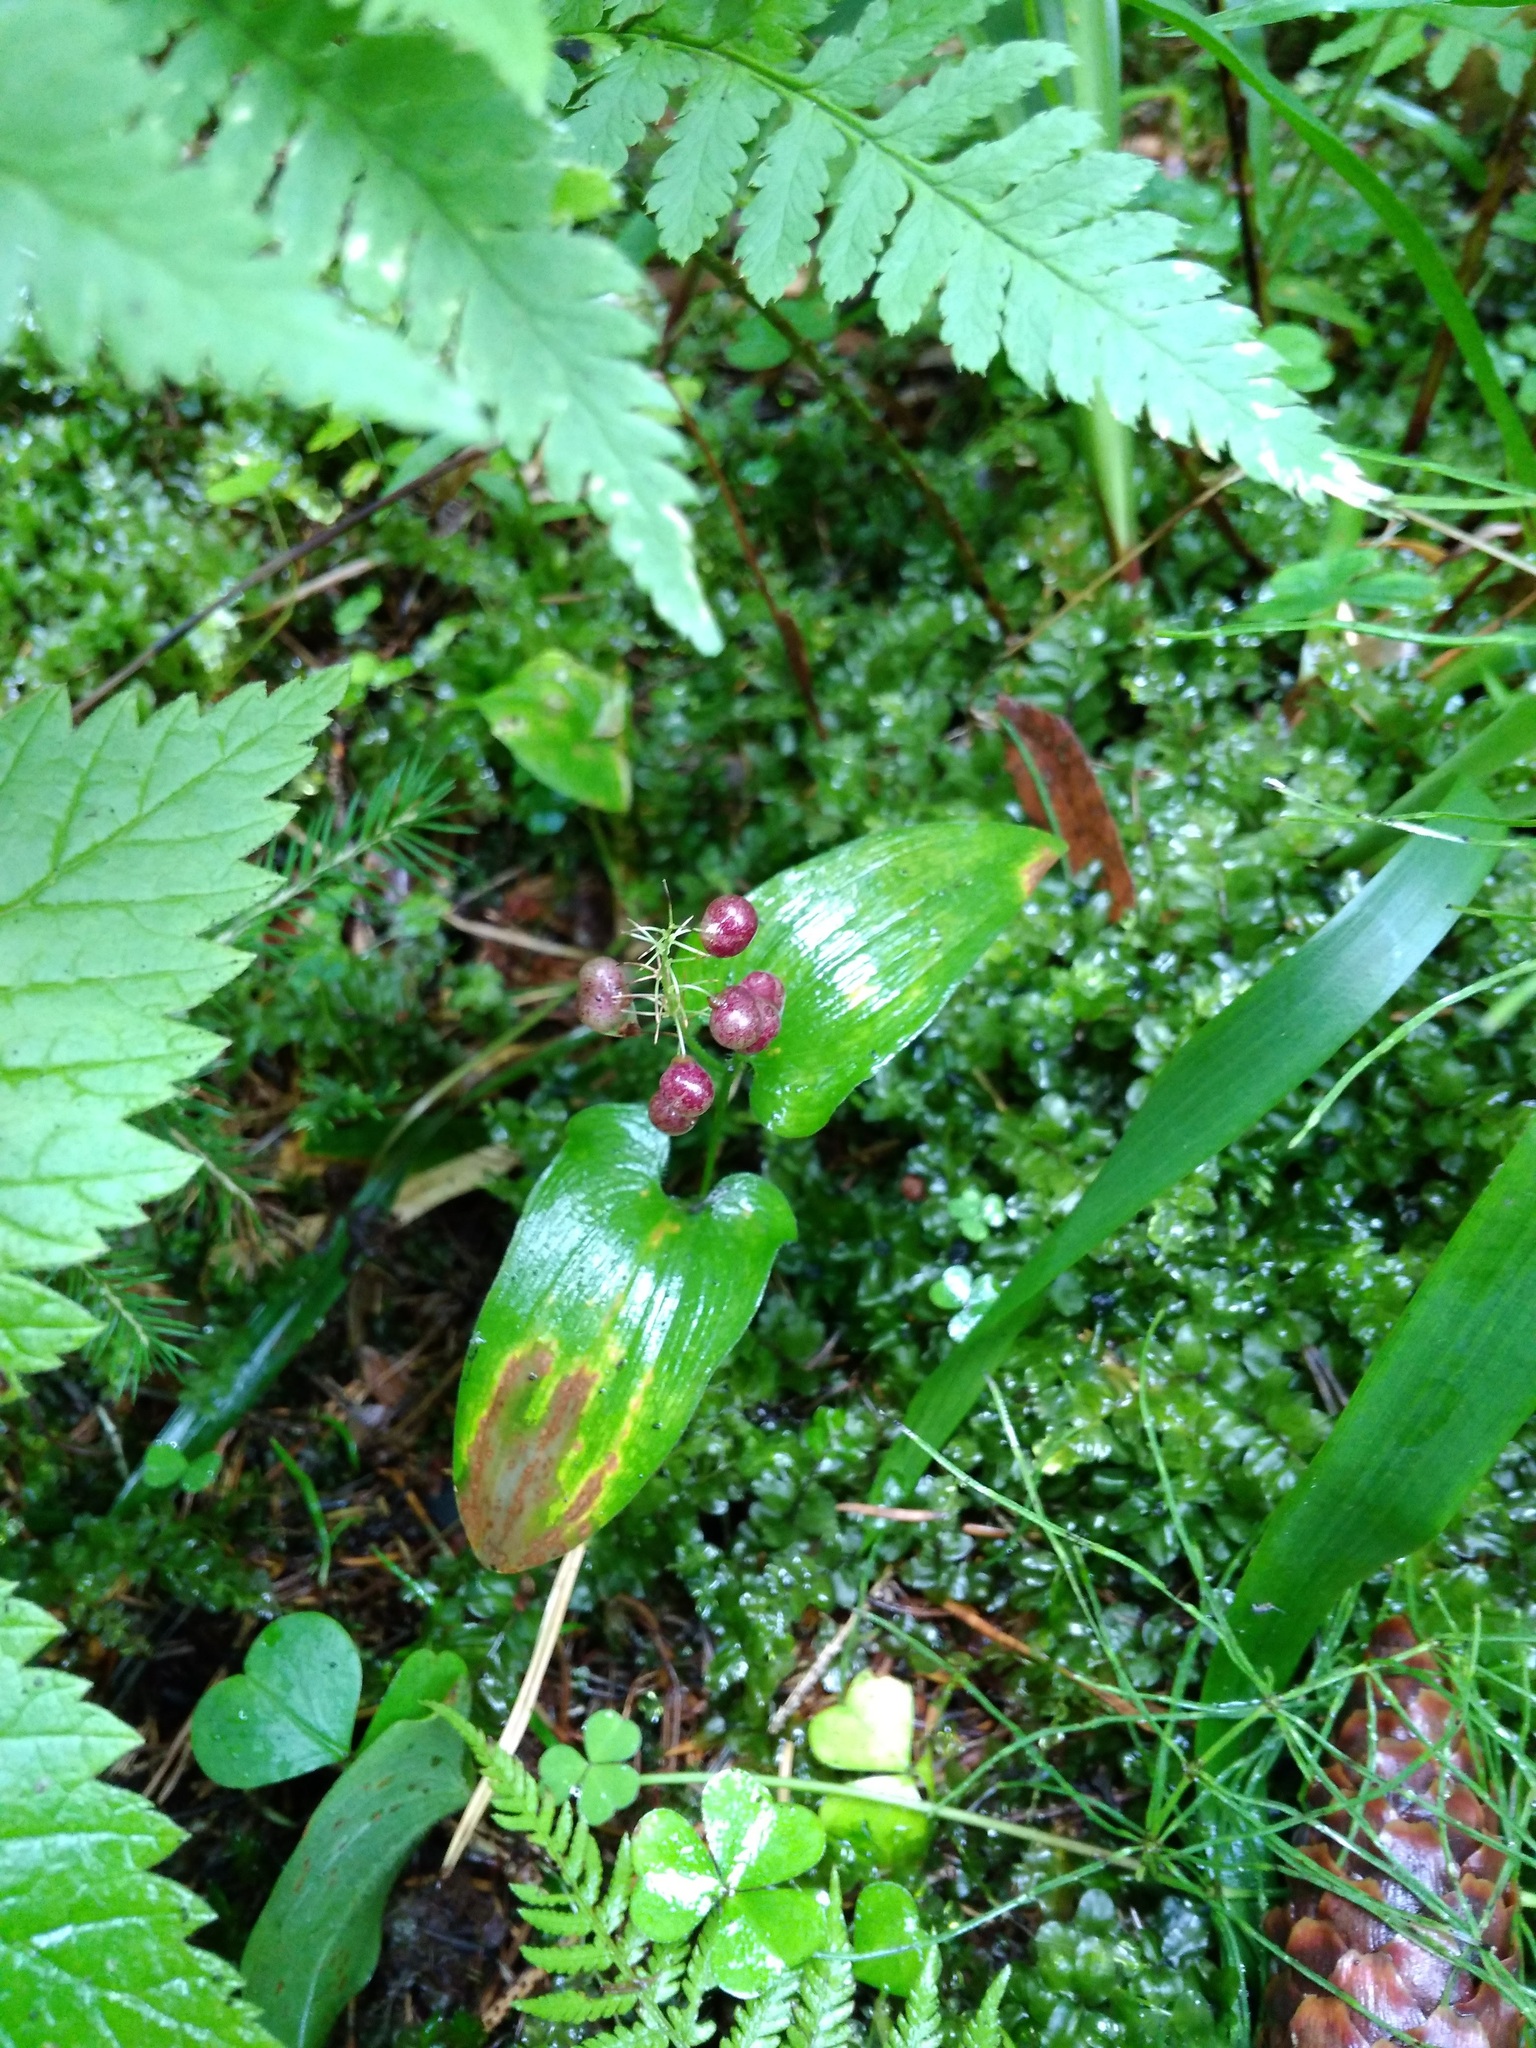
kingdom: Plantae
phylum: Tracheophyta
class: Liliopsida
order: Asparagales
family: Asparagaceae
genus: Maianthemum
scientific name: Maianthemum bifolium
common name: May lily
